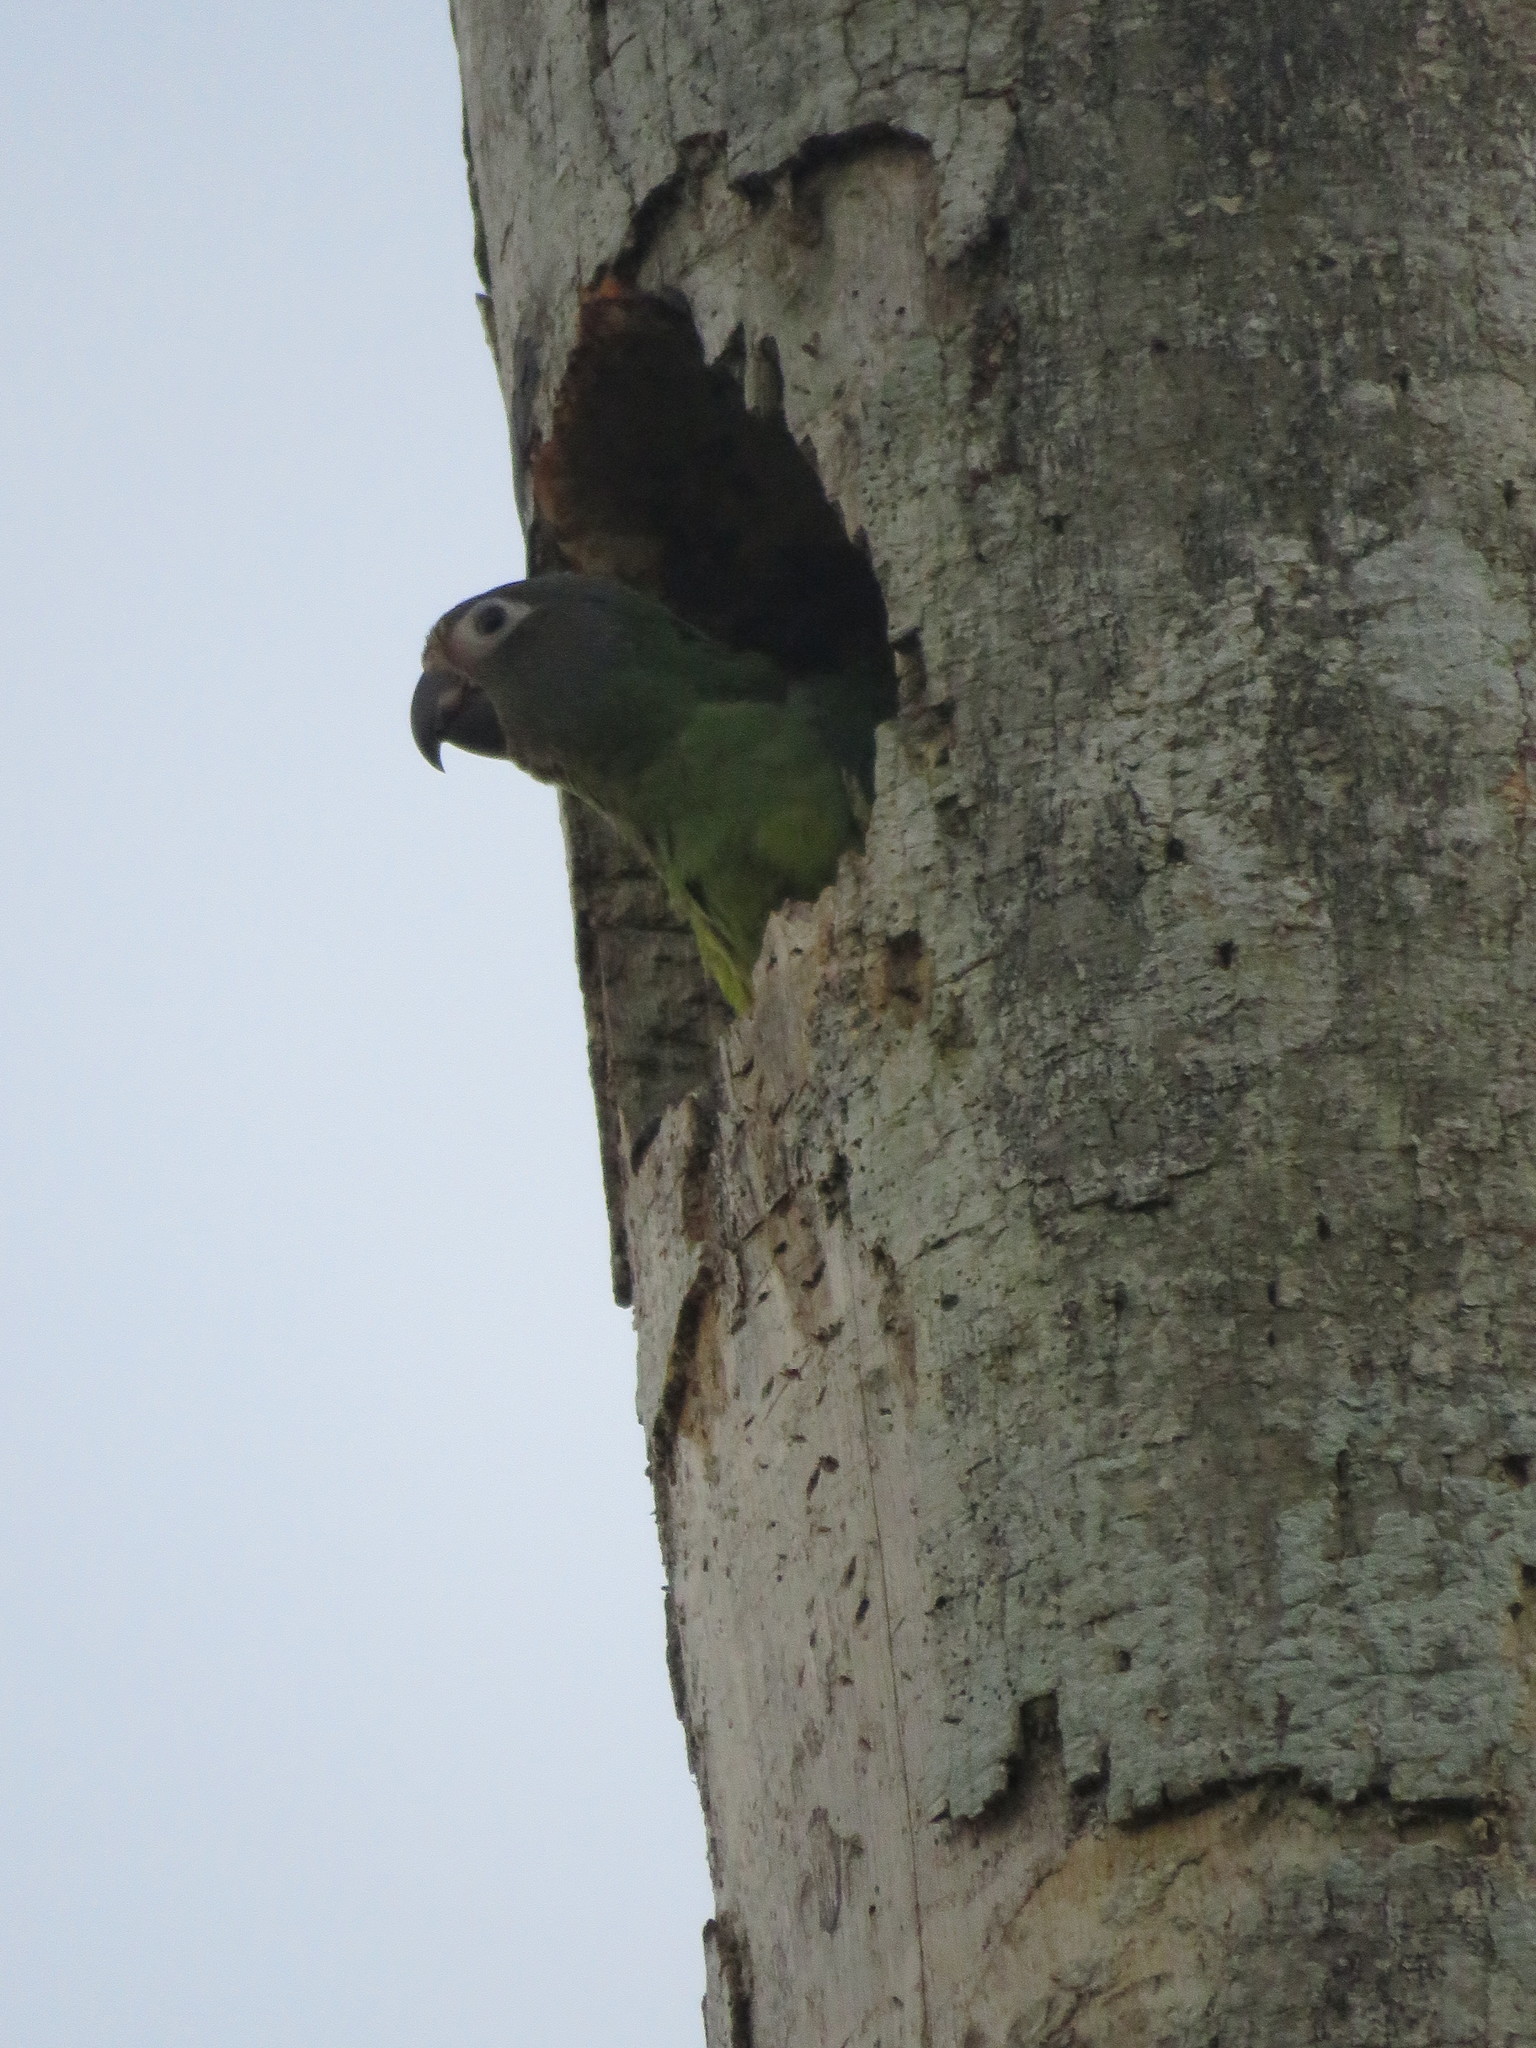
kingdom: Animalia
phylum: Chordata
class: Aves
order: Psittaciformes
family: Psittacidae
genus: Aratinga
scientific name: Aratinga weddellii
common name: Dusky-headed parakeet
